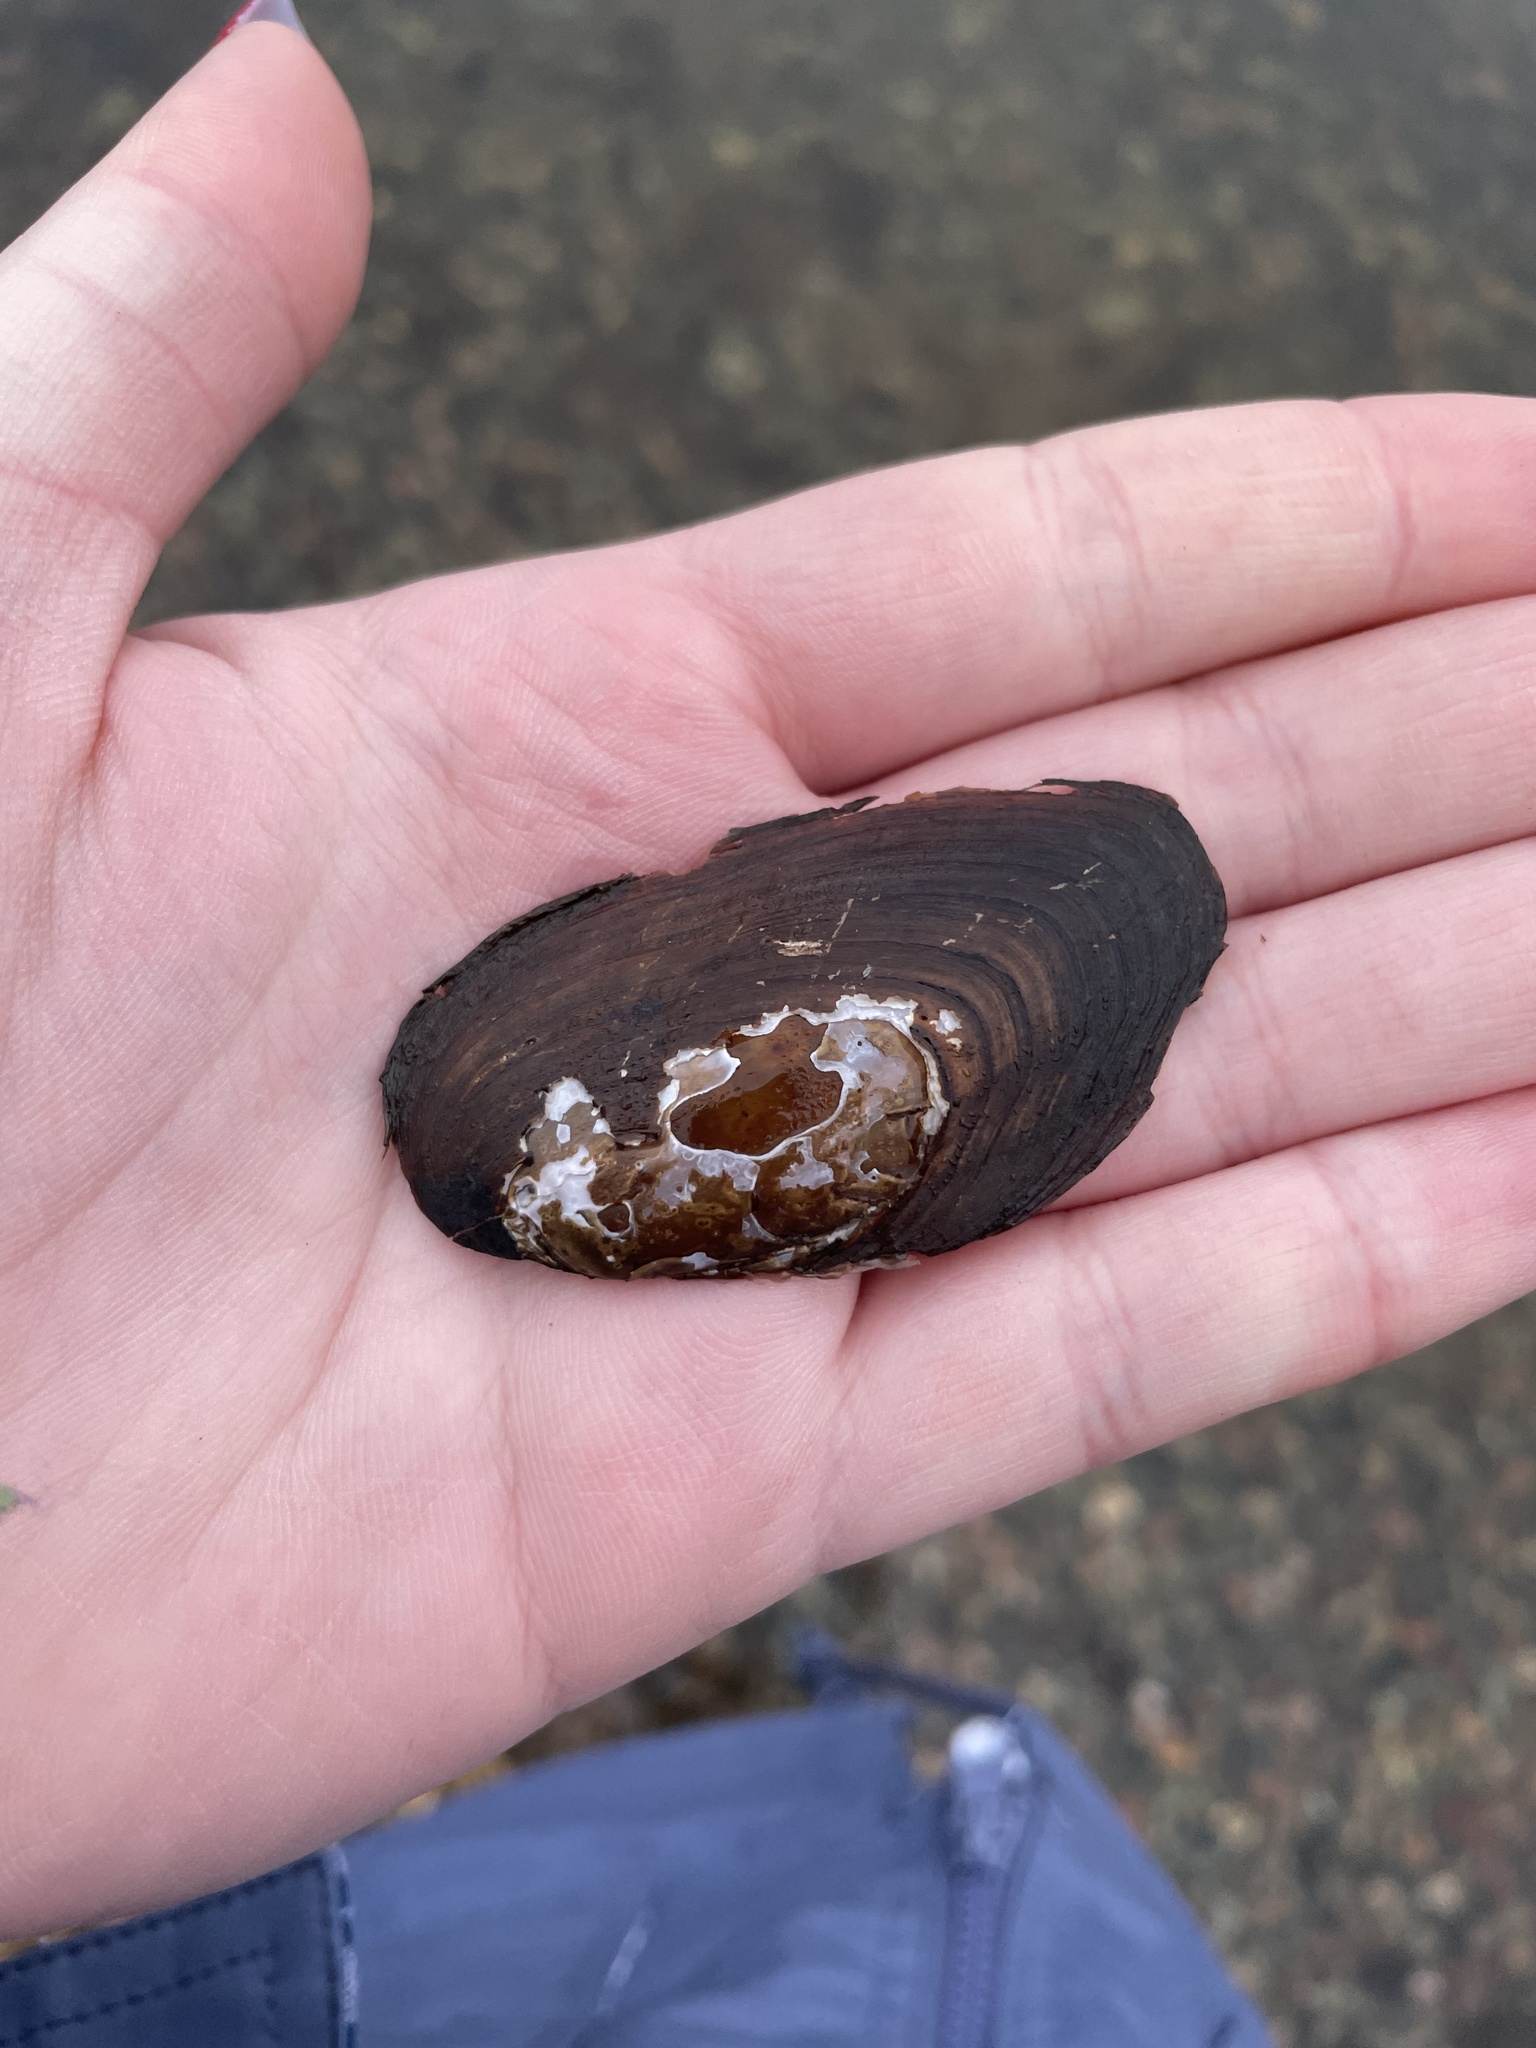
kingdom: Animalia
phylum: Mollusca
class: Bivalvia
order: Unionida
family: Unionidae
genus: Elliptio
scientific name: Elliptio complanata
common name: Eastern elliptio
